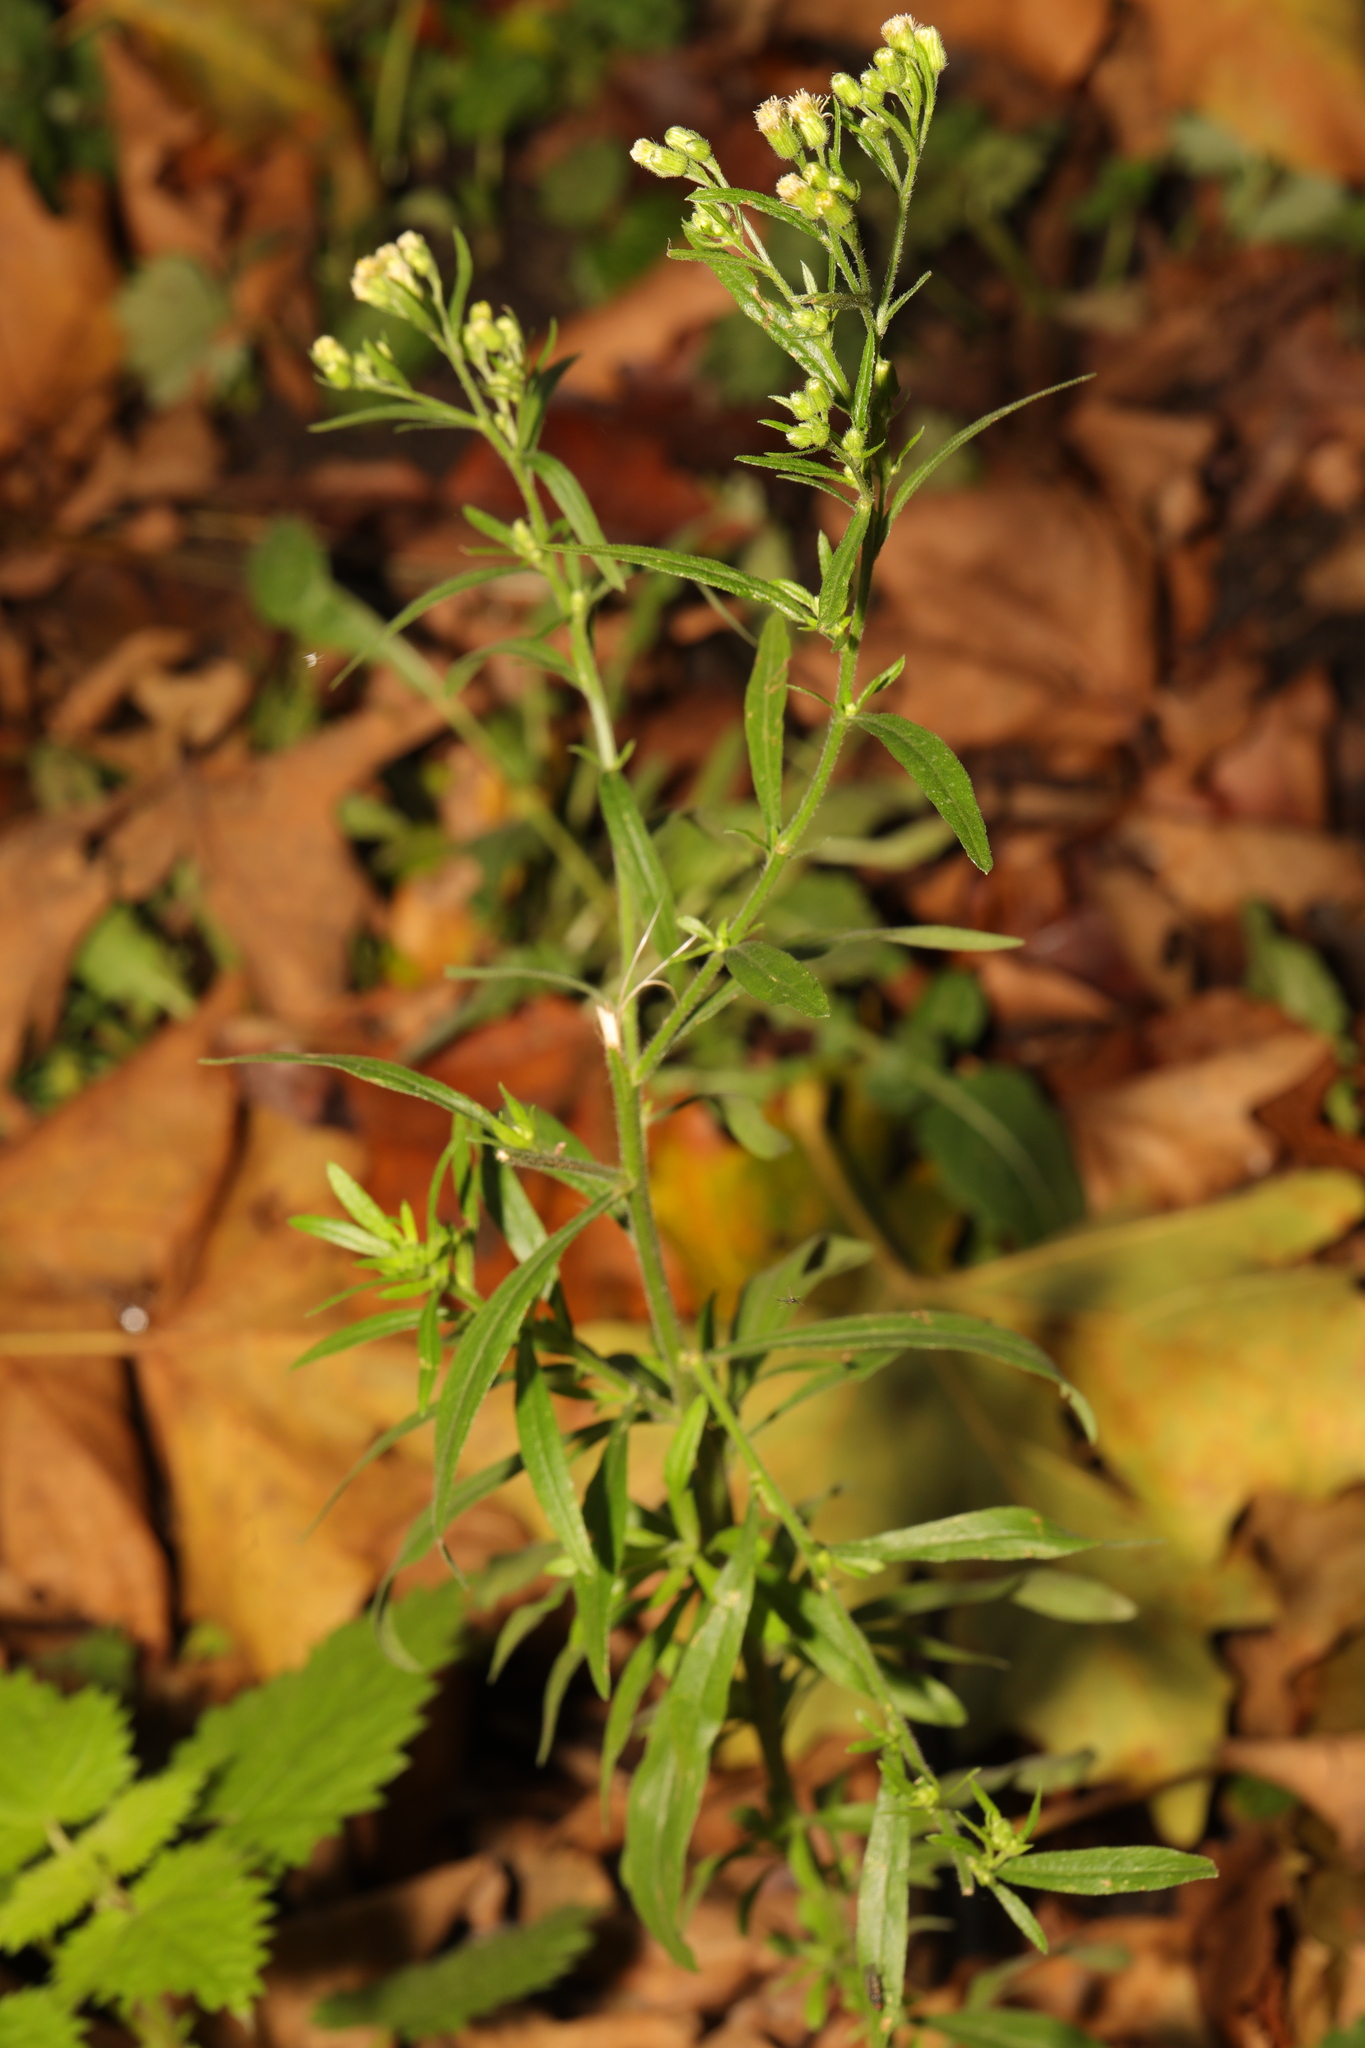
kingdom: Plantae
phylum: Tracheophyta
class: Magnoliopsida
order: Asterales
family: Asteraceae
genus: Erigeron
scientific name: Erigeron sumatrensis
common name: Daisy
